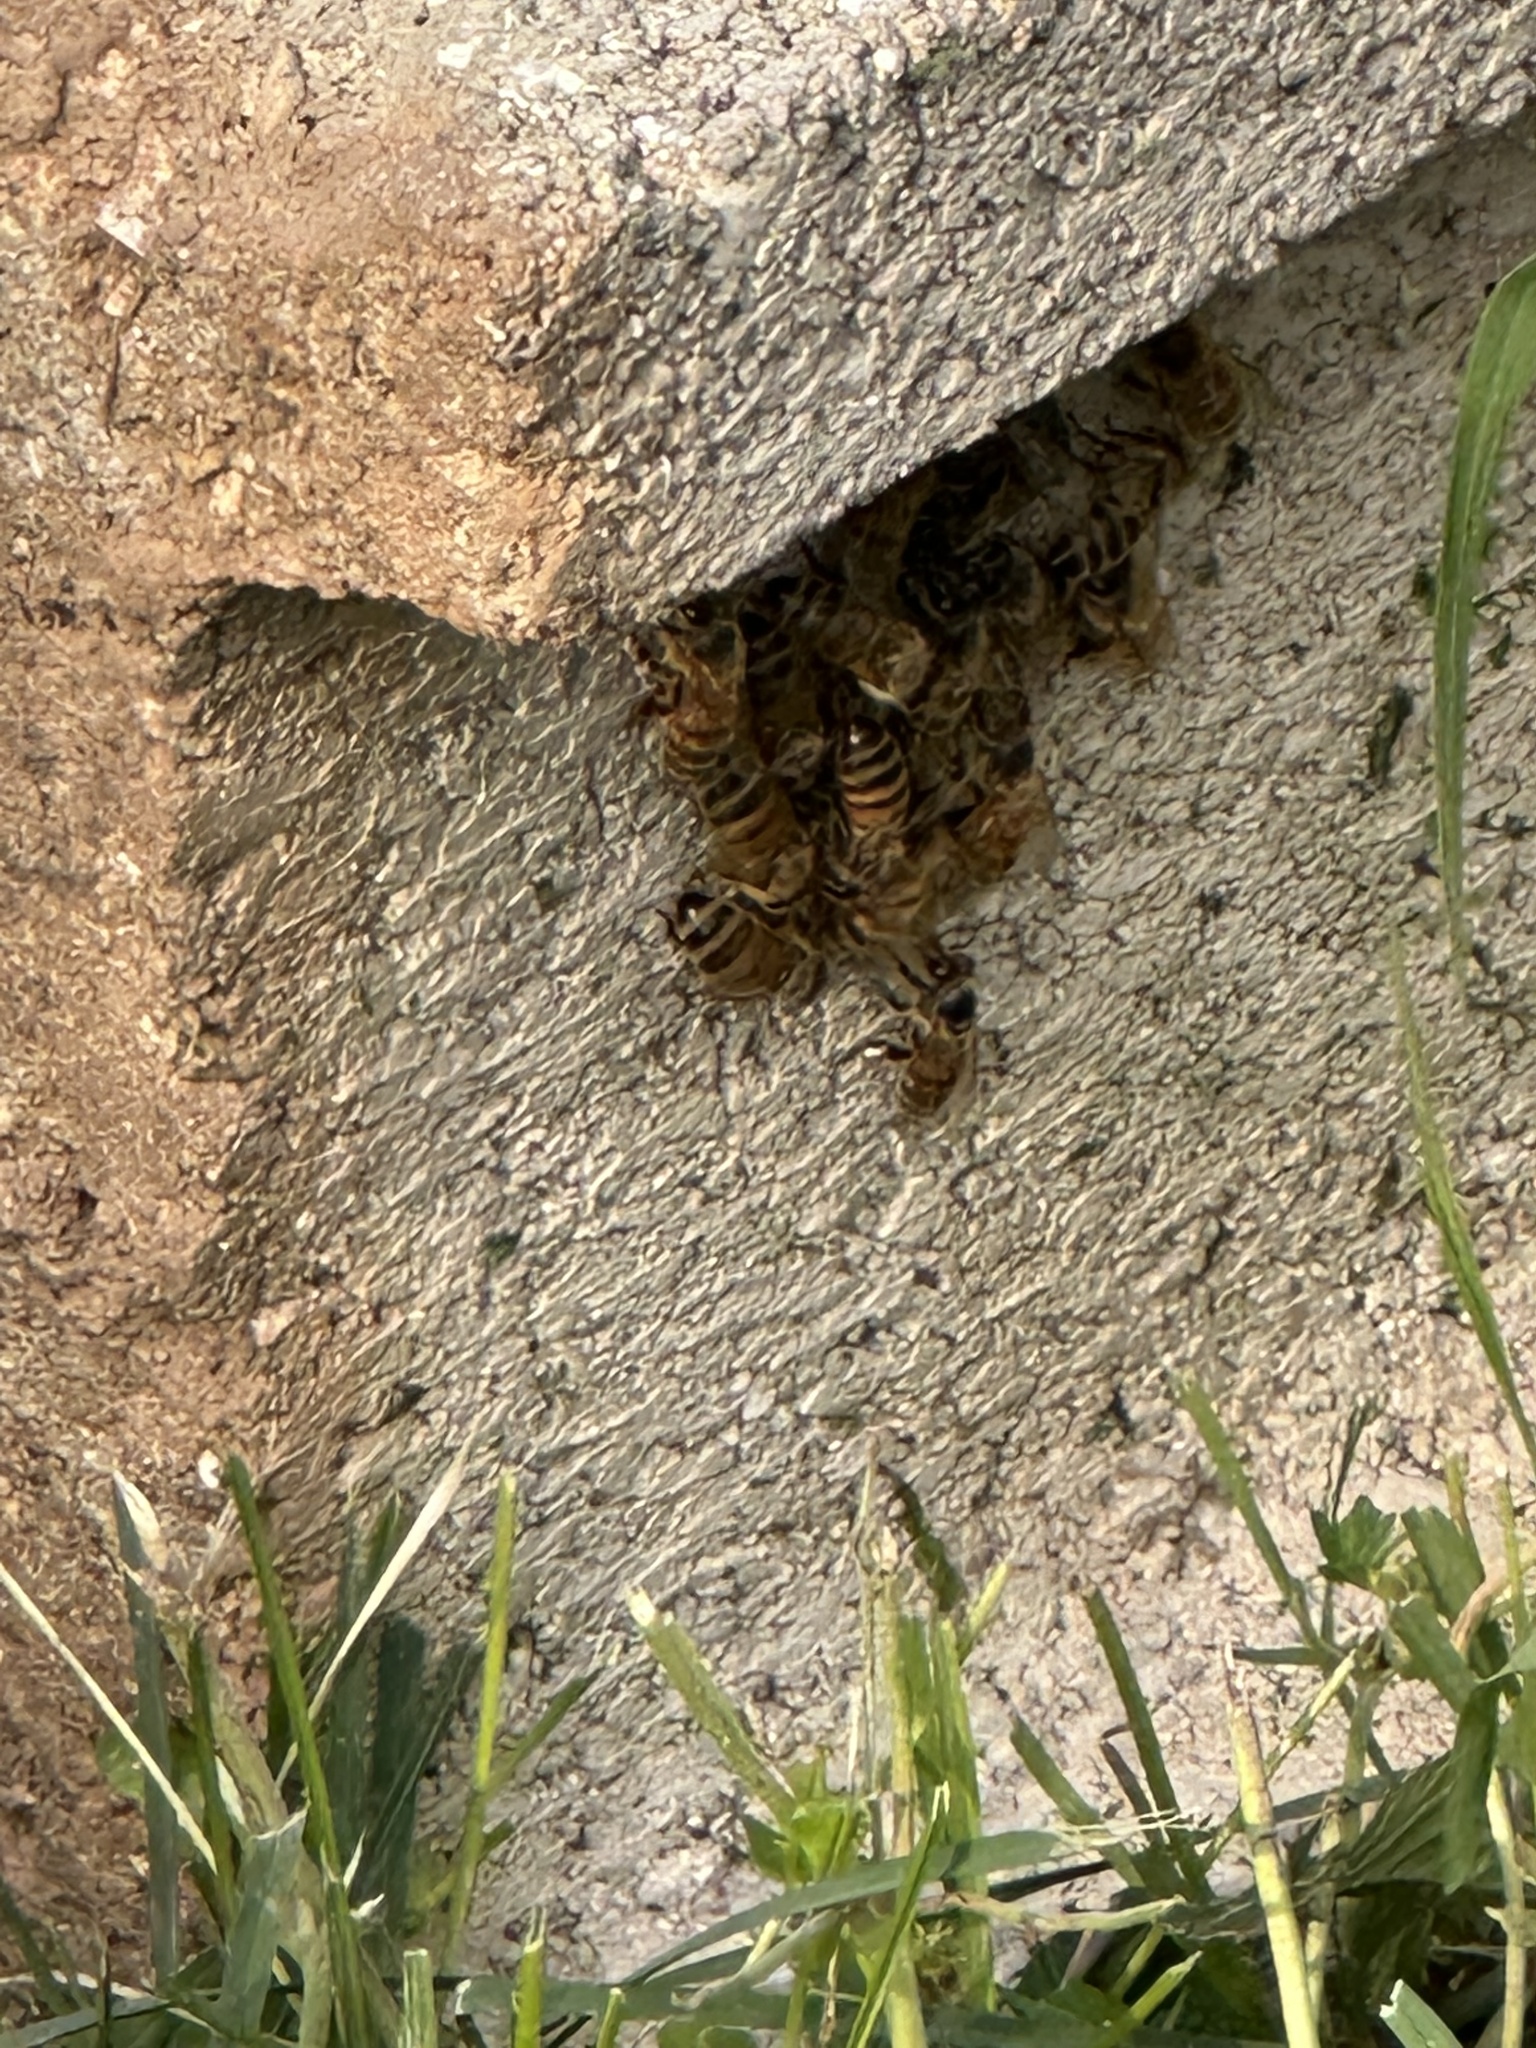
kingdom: Animalia
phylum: Arthropoda
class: Insecta
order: Hymenoptera
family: Apidae
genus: Apis
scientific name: Apis mellifera
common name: Honey bee
